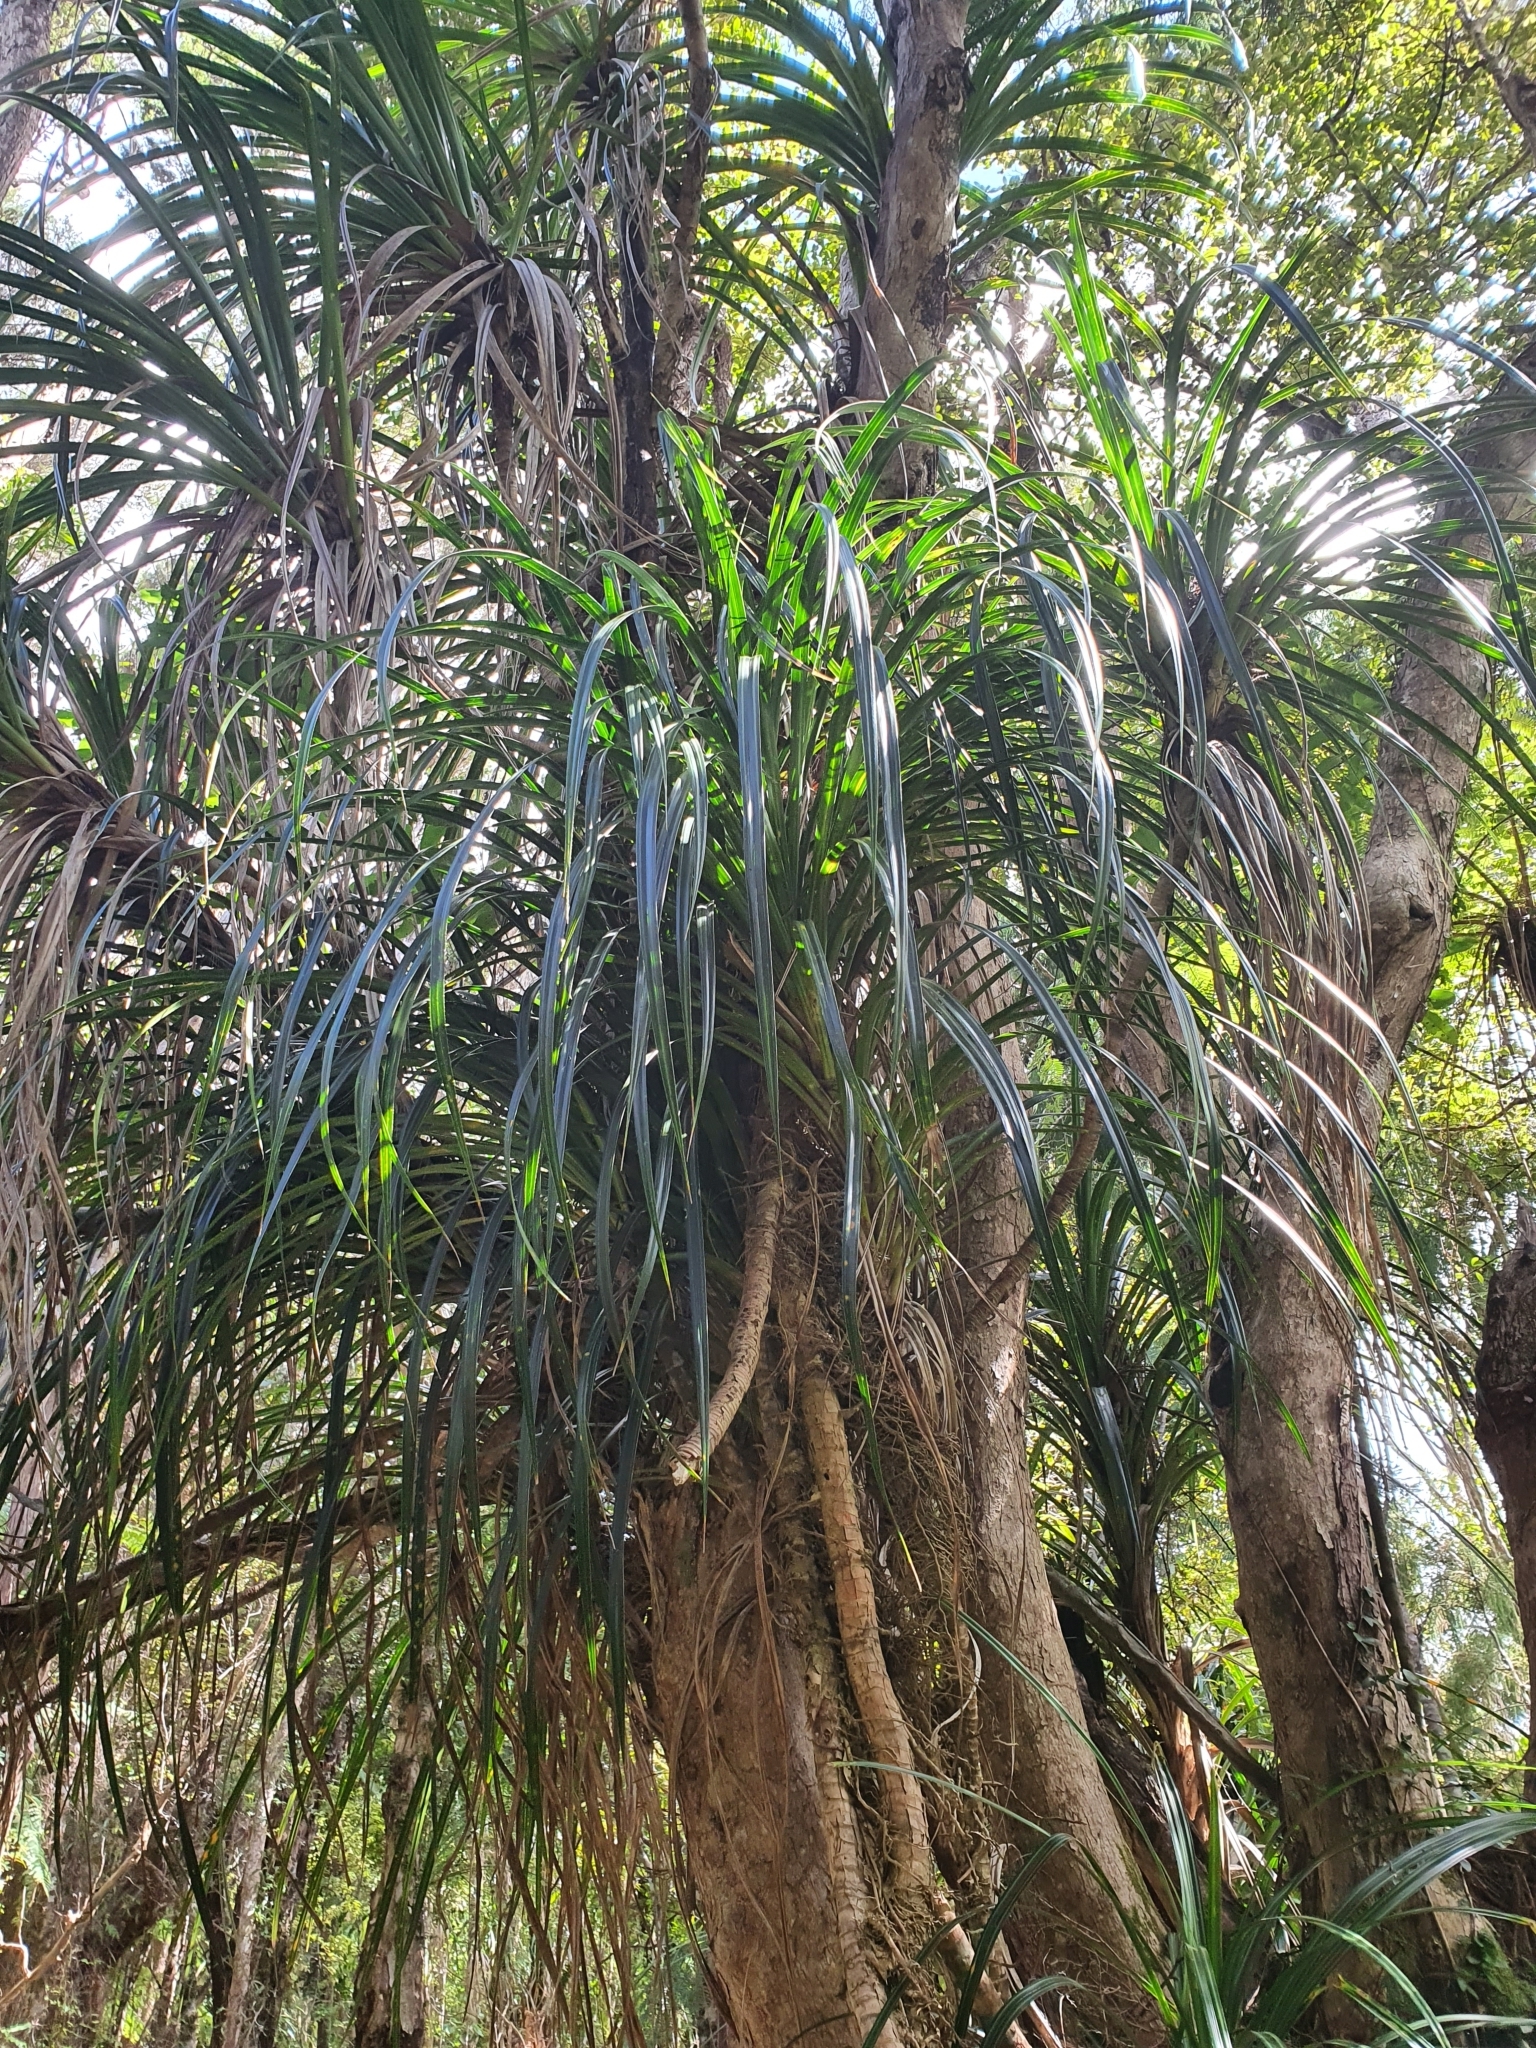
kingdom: Plantae
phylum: Tracheophyta
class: Liliopsida
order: Pandanales
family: Pandanaceae
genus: Freycinetia
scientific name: Freycinetia banksii
